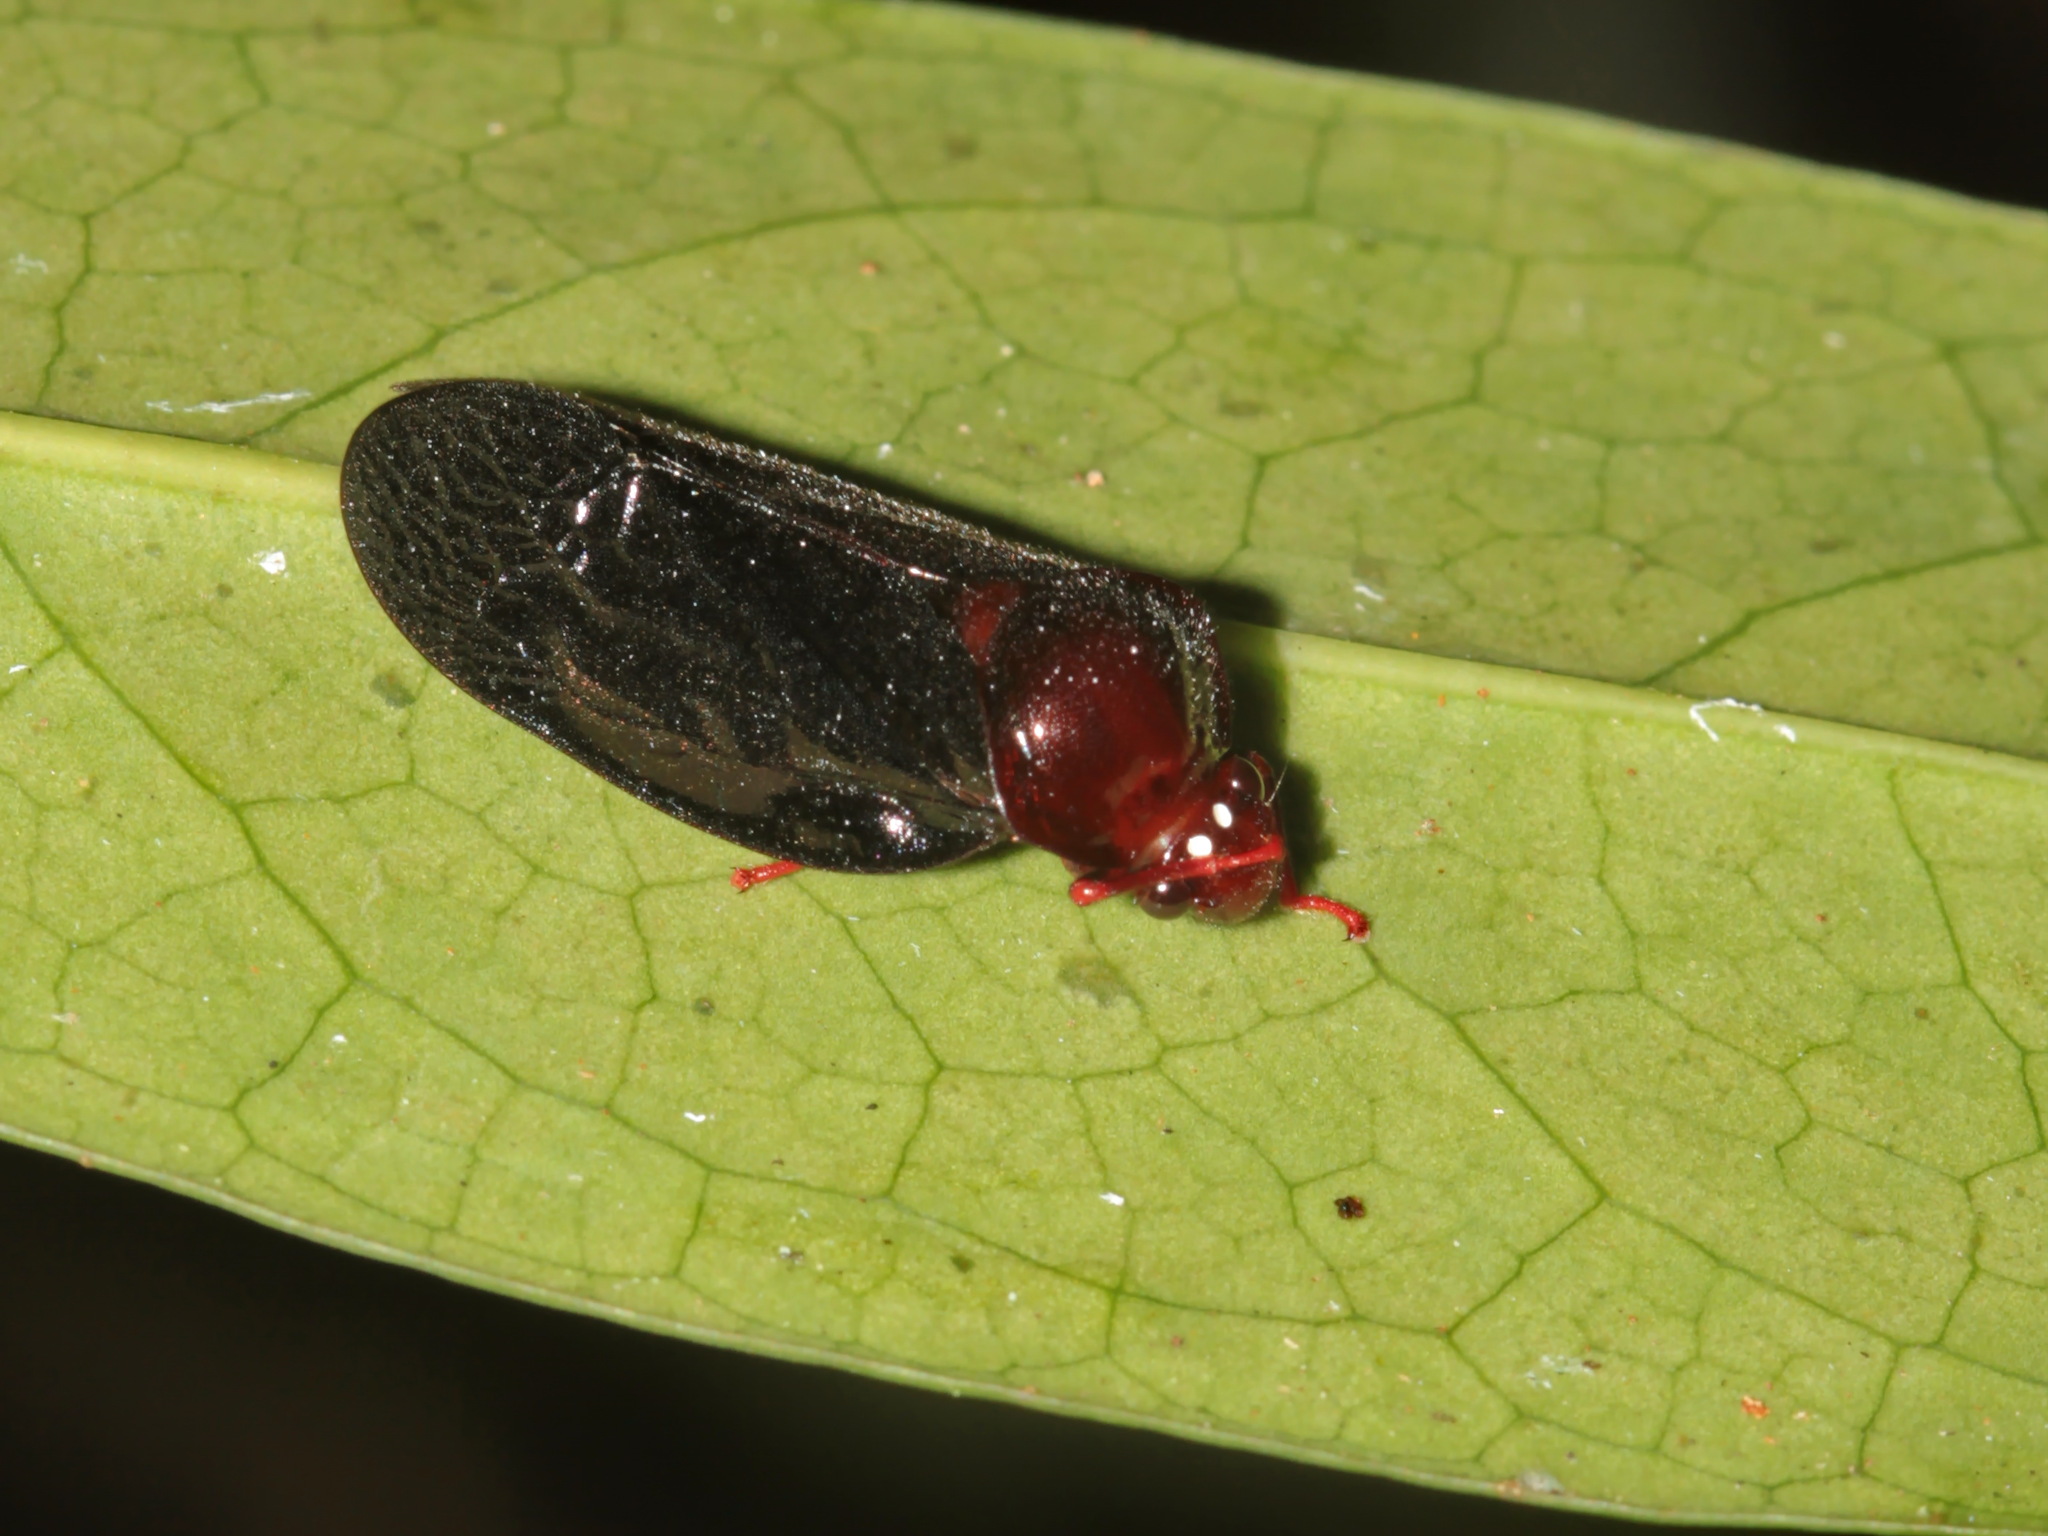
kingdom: Animalia
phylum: Arthropoda
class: Insecta
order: Hemiptera
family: Cercopidae
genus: Simeliria
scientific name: Simeliria viridans
